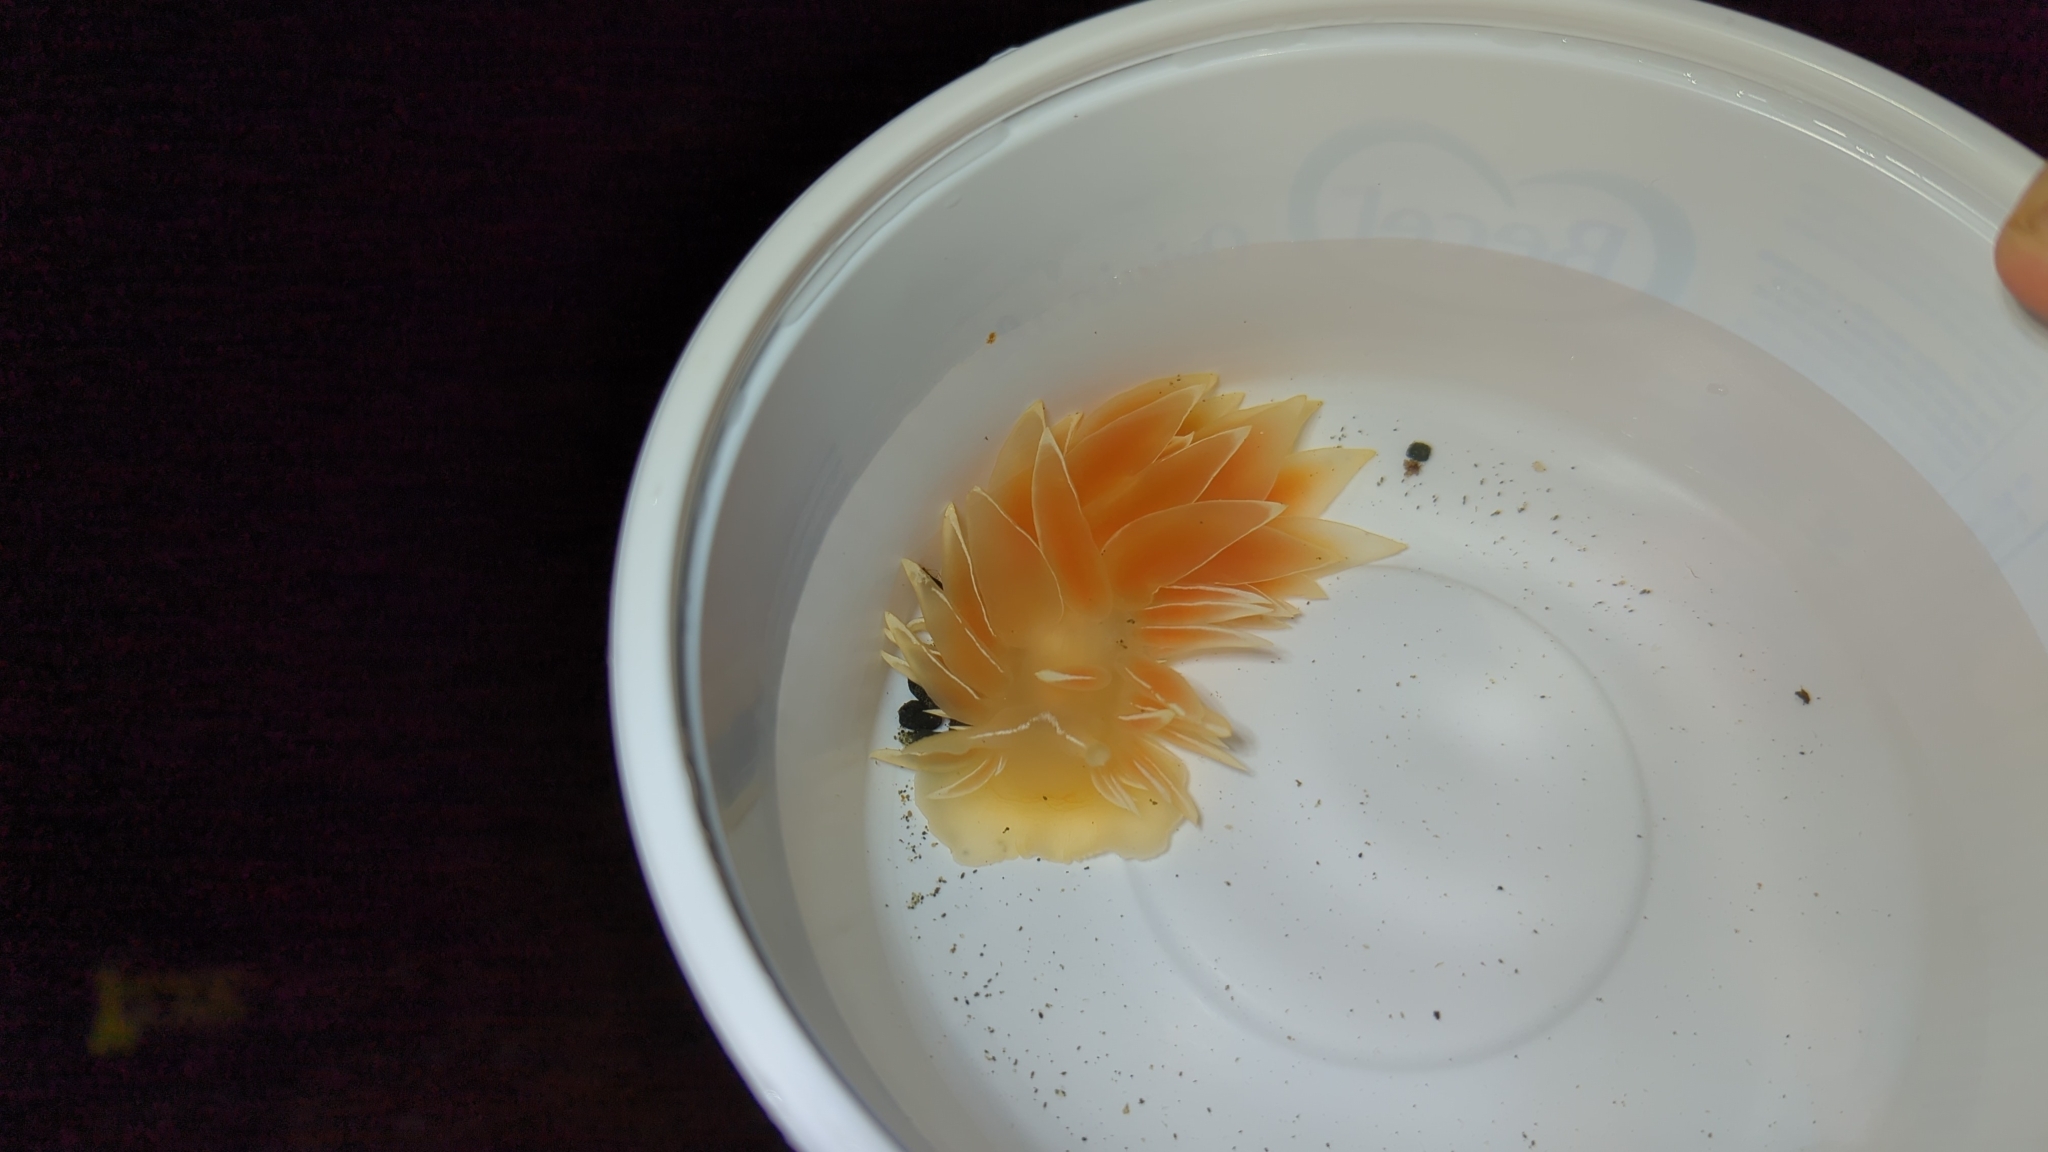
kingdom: Animalia
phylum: Mollusca
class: Gastropoda
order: Nudibranchia
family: Dironidae
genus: Dirona
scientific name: Dirona albolineata
